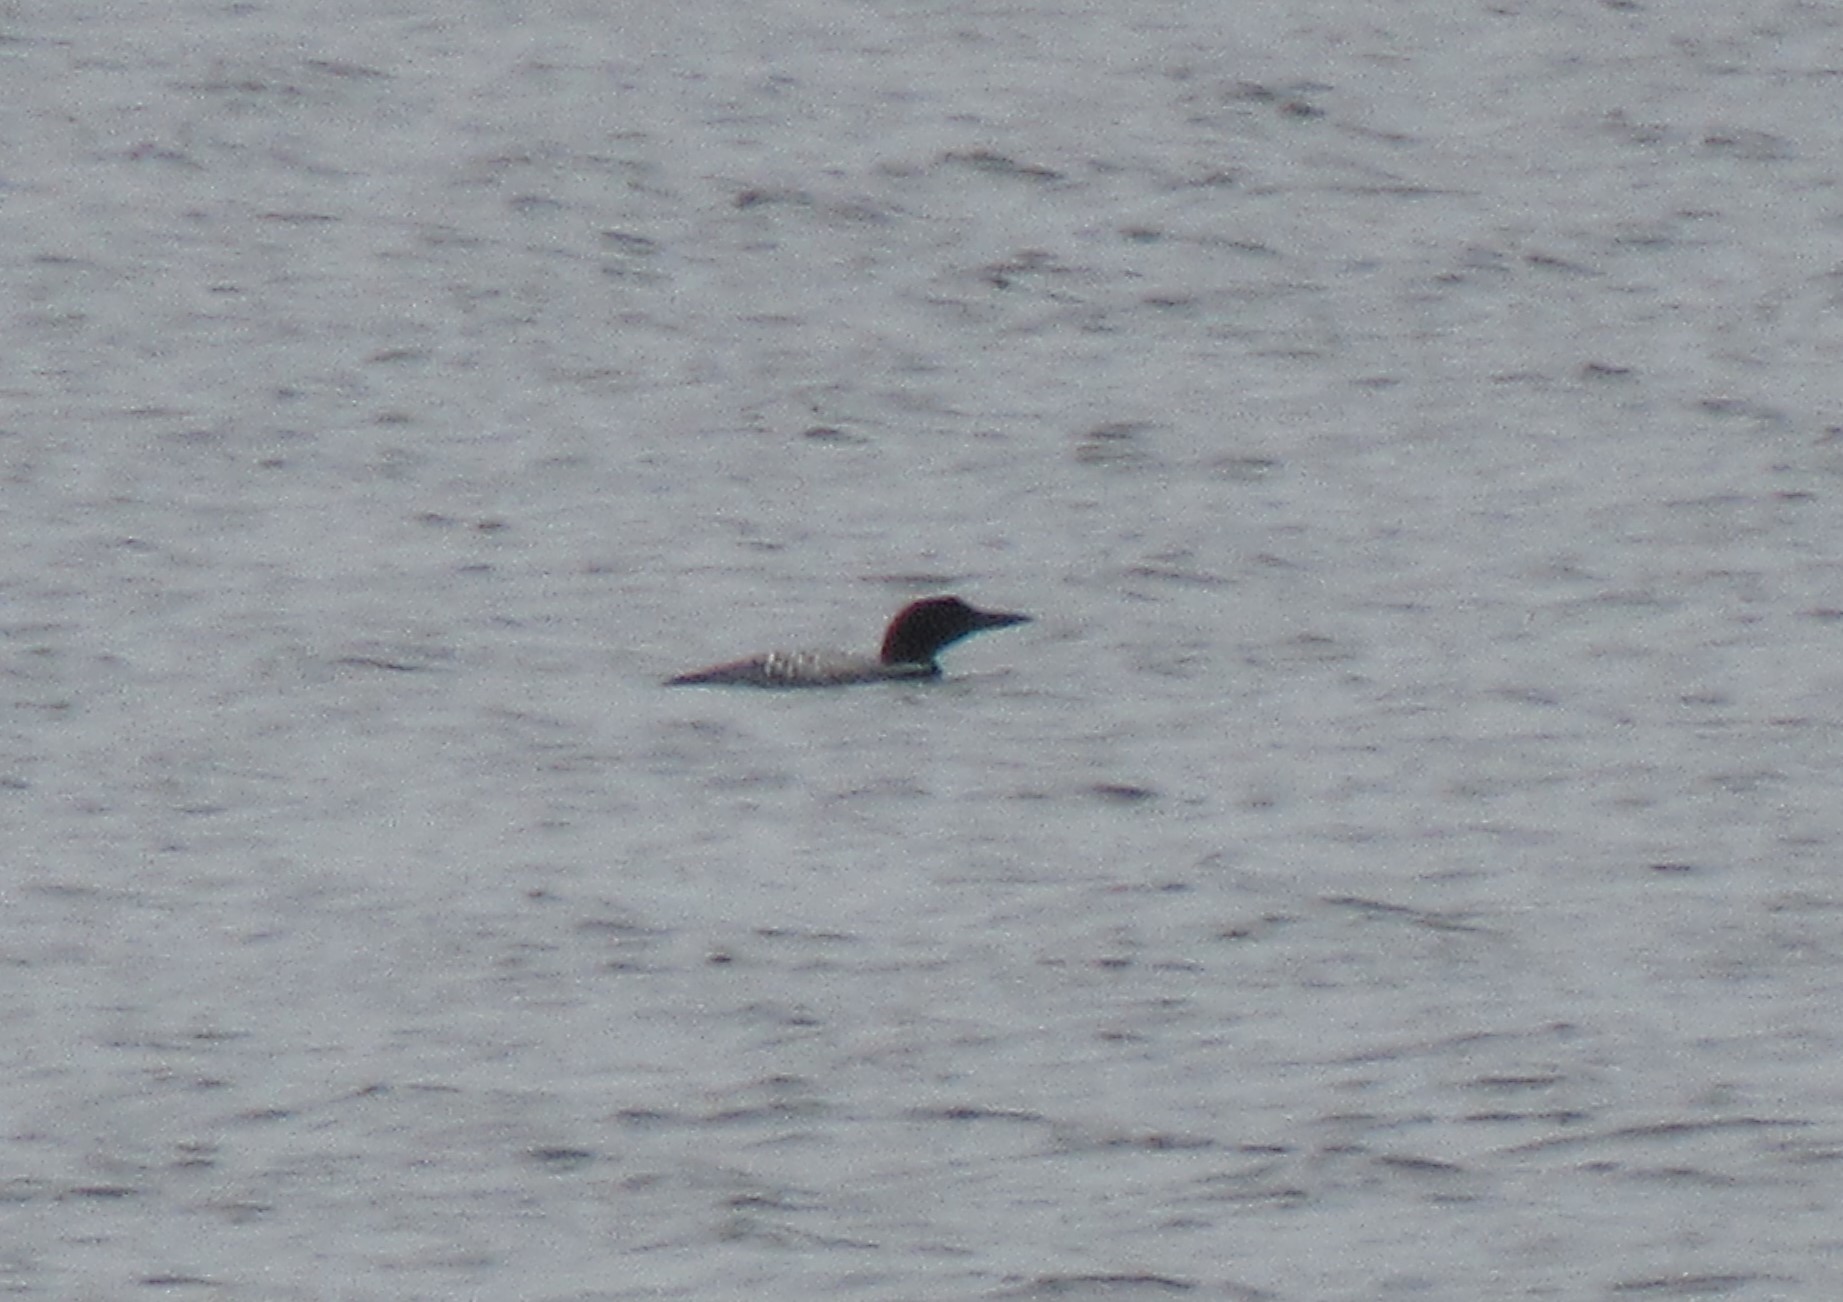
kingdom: Animalia
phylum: Chordata
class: Aves
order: Gaviiformes
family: Gaviidae
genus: Gavia
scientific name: Gavia immer
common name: Common loon
